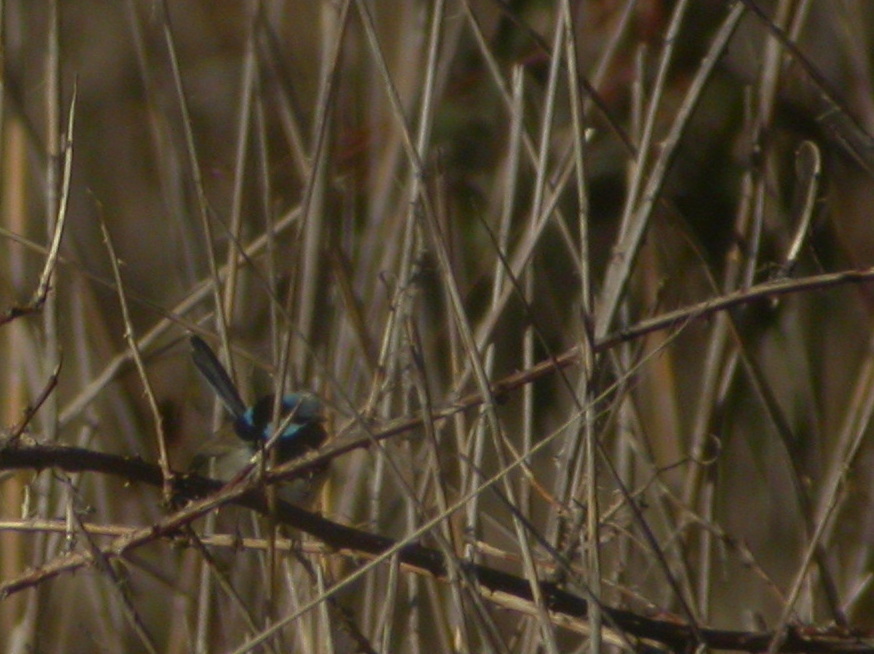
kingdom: Animalia
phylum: Chordata
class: Aves
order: Passeriformes
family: Maluridae
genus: Malurus
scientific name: Malurus cyaneus
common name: Superb fairywren
